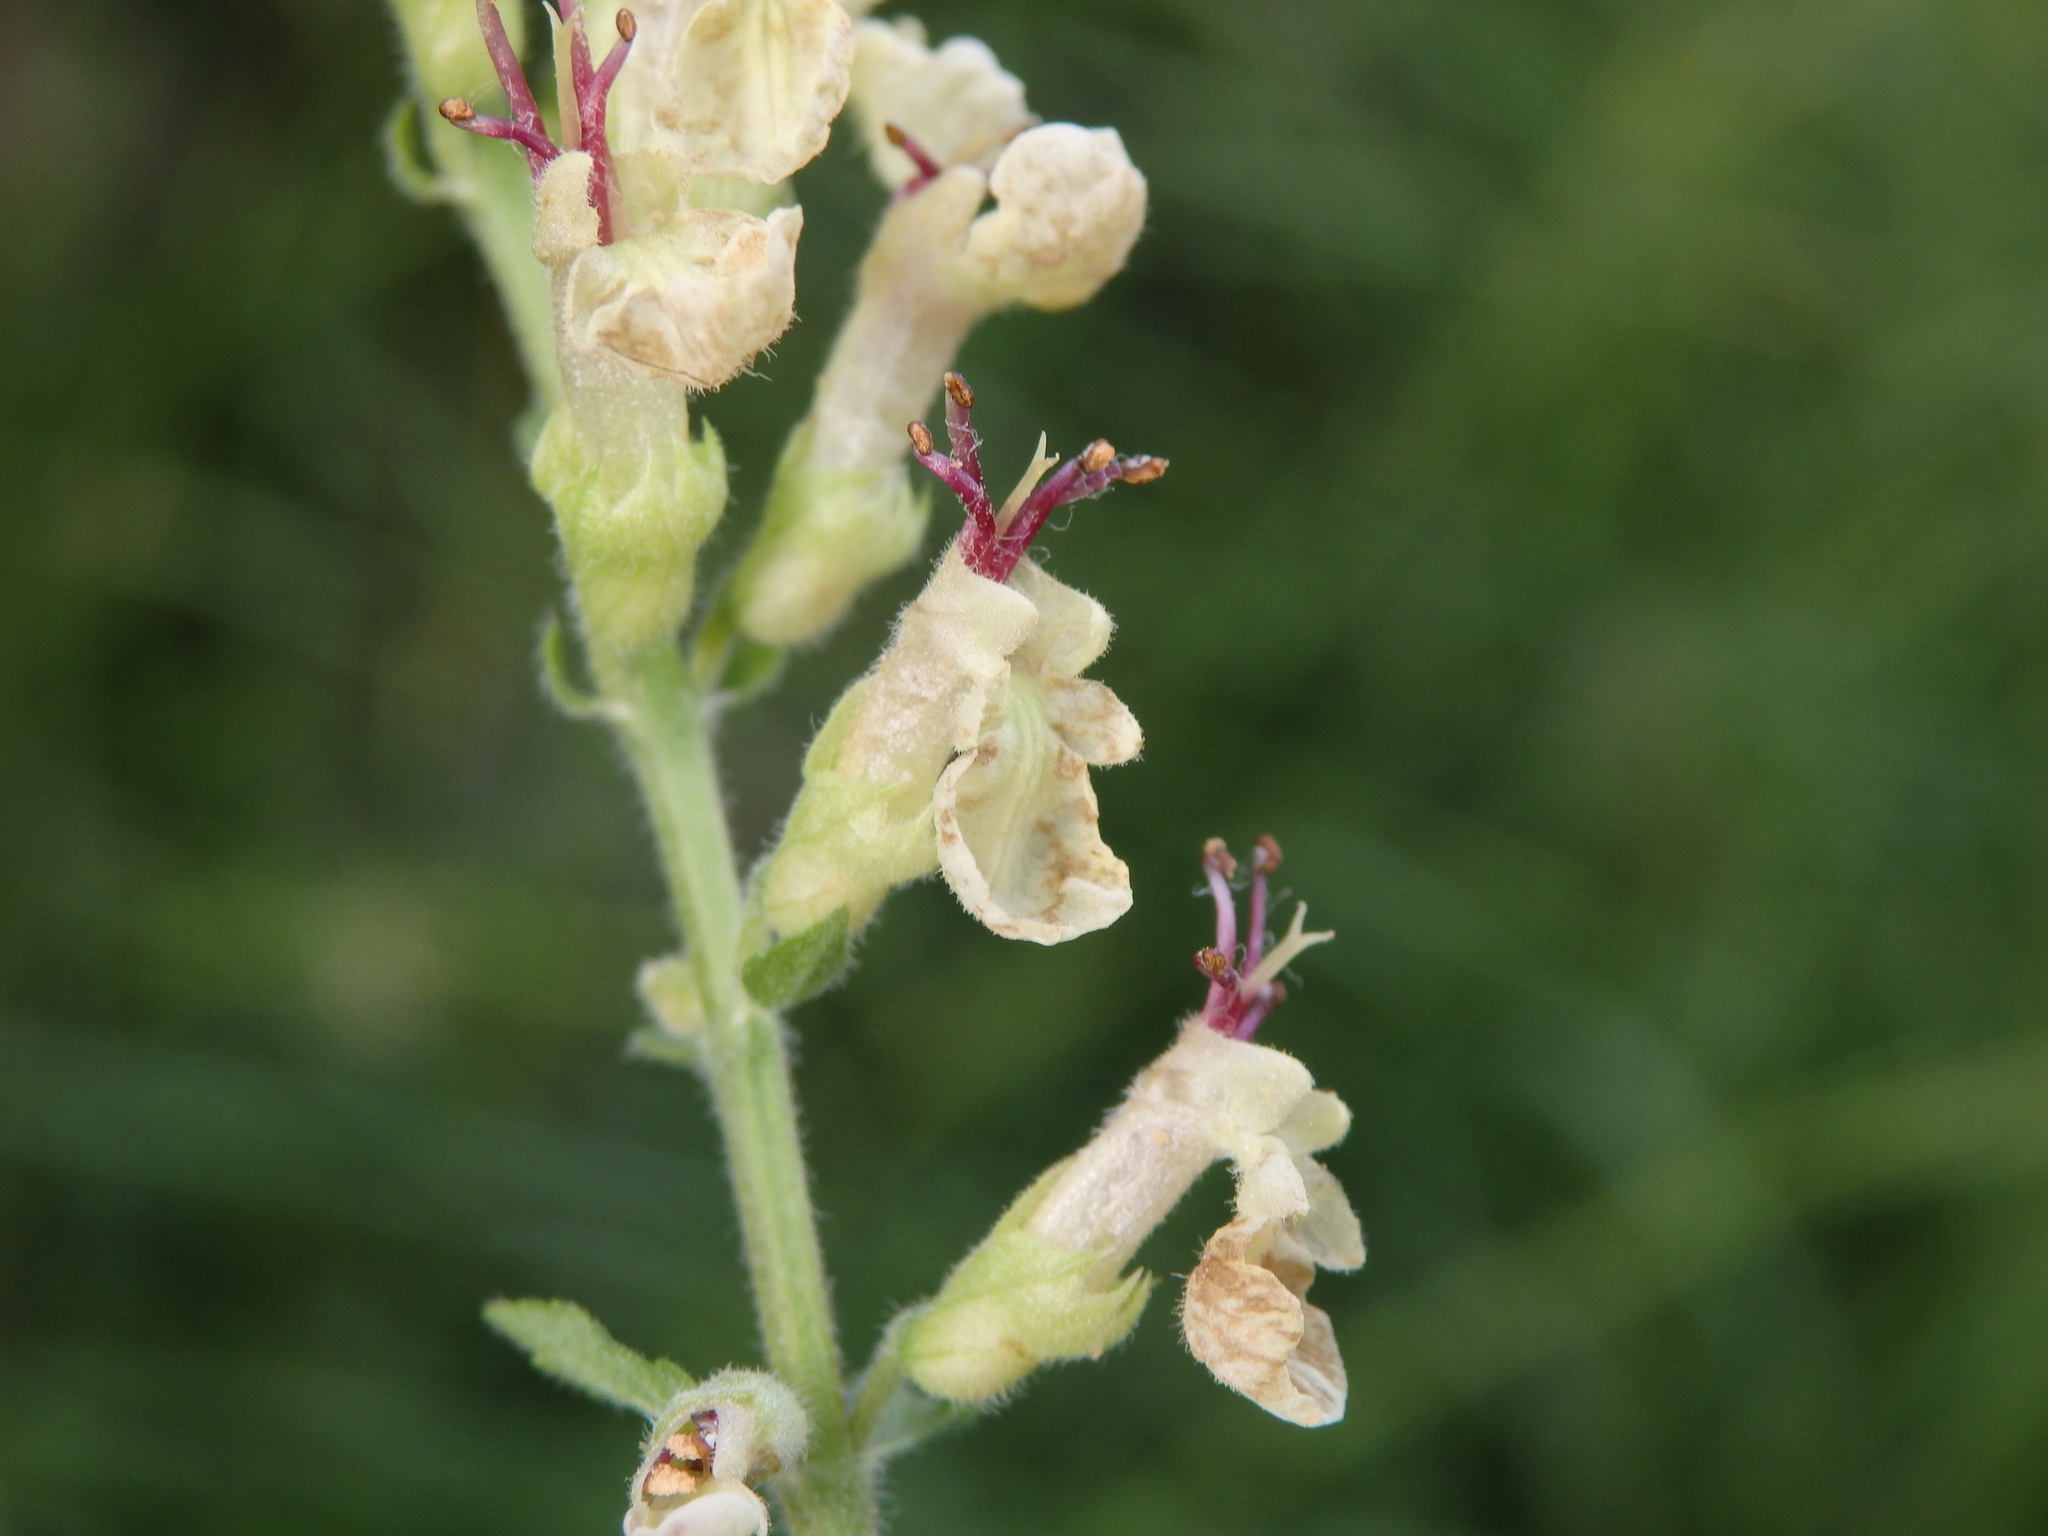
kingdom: Plantae
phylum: Tracheophyta
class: Magnoliopsida
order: Lamiales
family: Lamiaceae
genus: Teucrium
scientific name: Teucrium scorodonia
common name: Woodland germander
